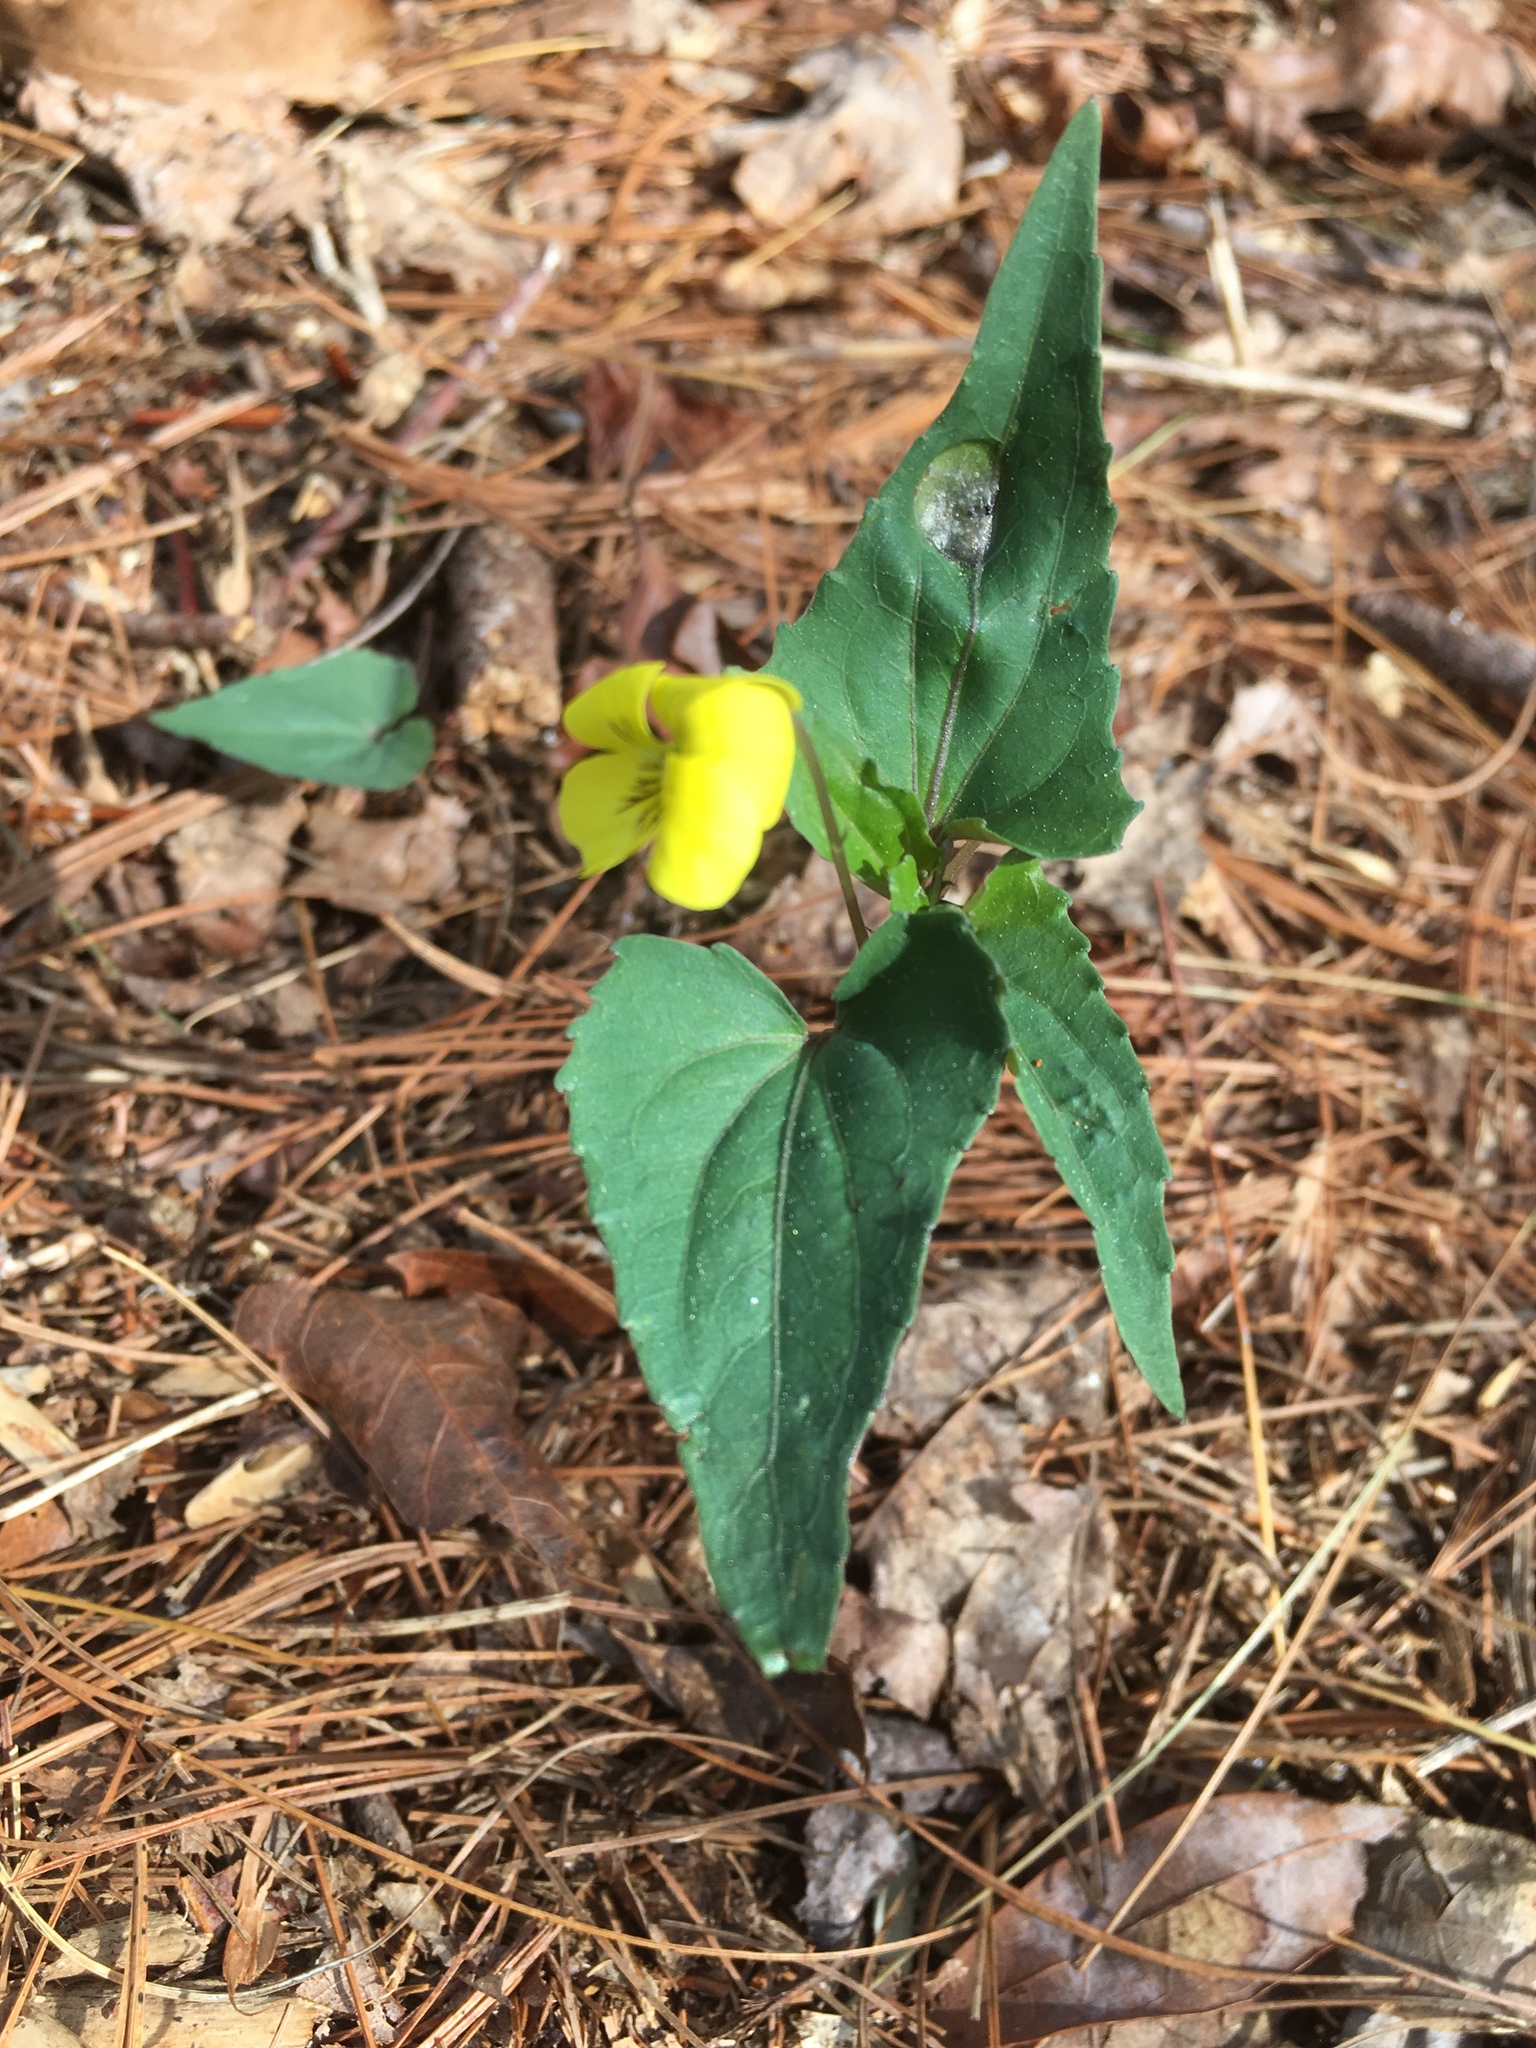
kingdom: Plantae
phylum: Tracheophyta
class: Magnoliopsida
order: Malpighiales
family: Violaceae
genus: Viola
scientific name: Viola hastata
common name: Spear-leaf violet
